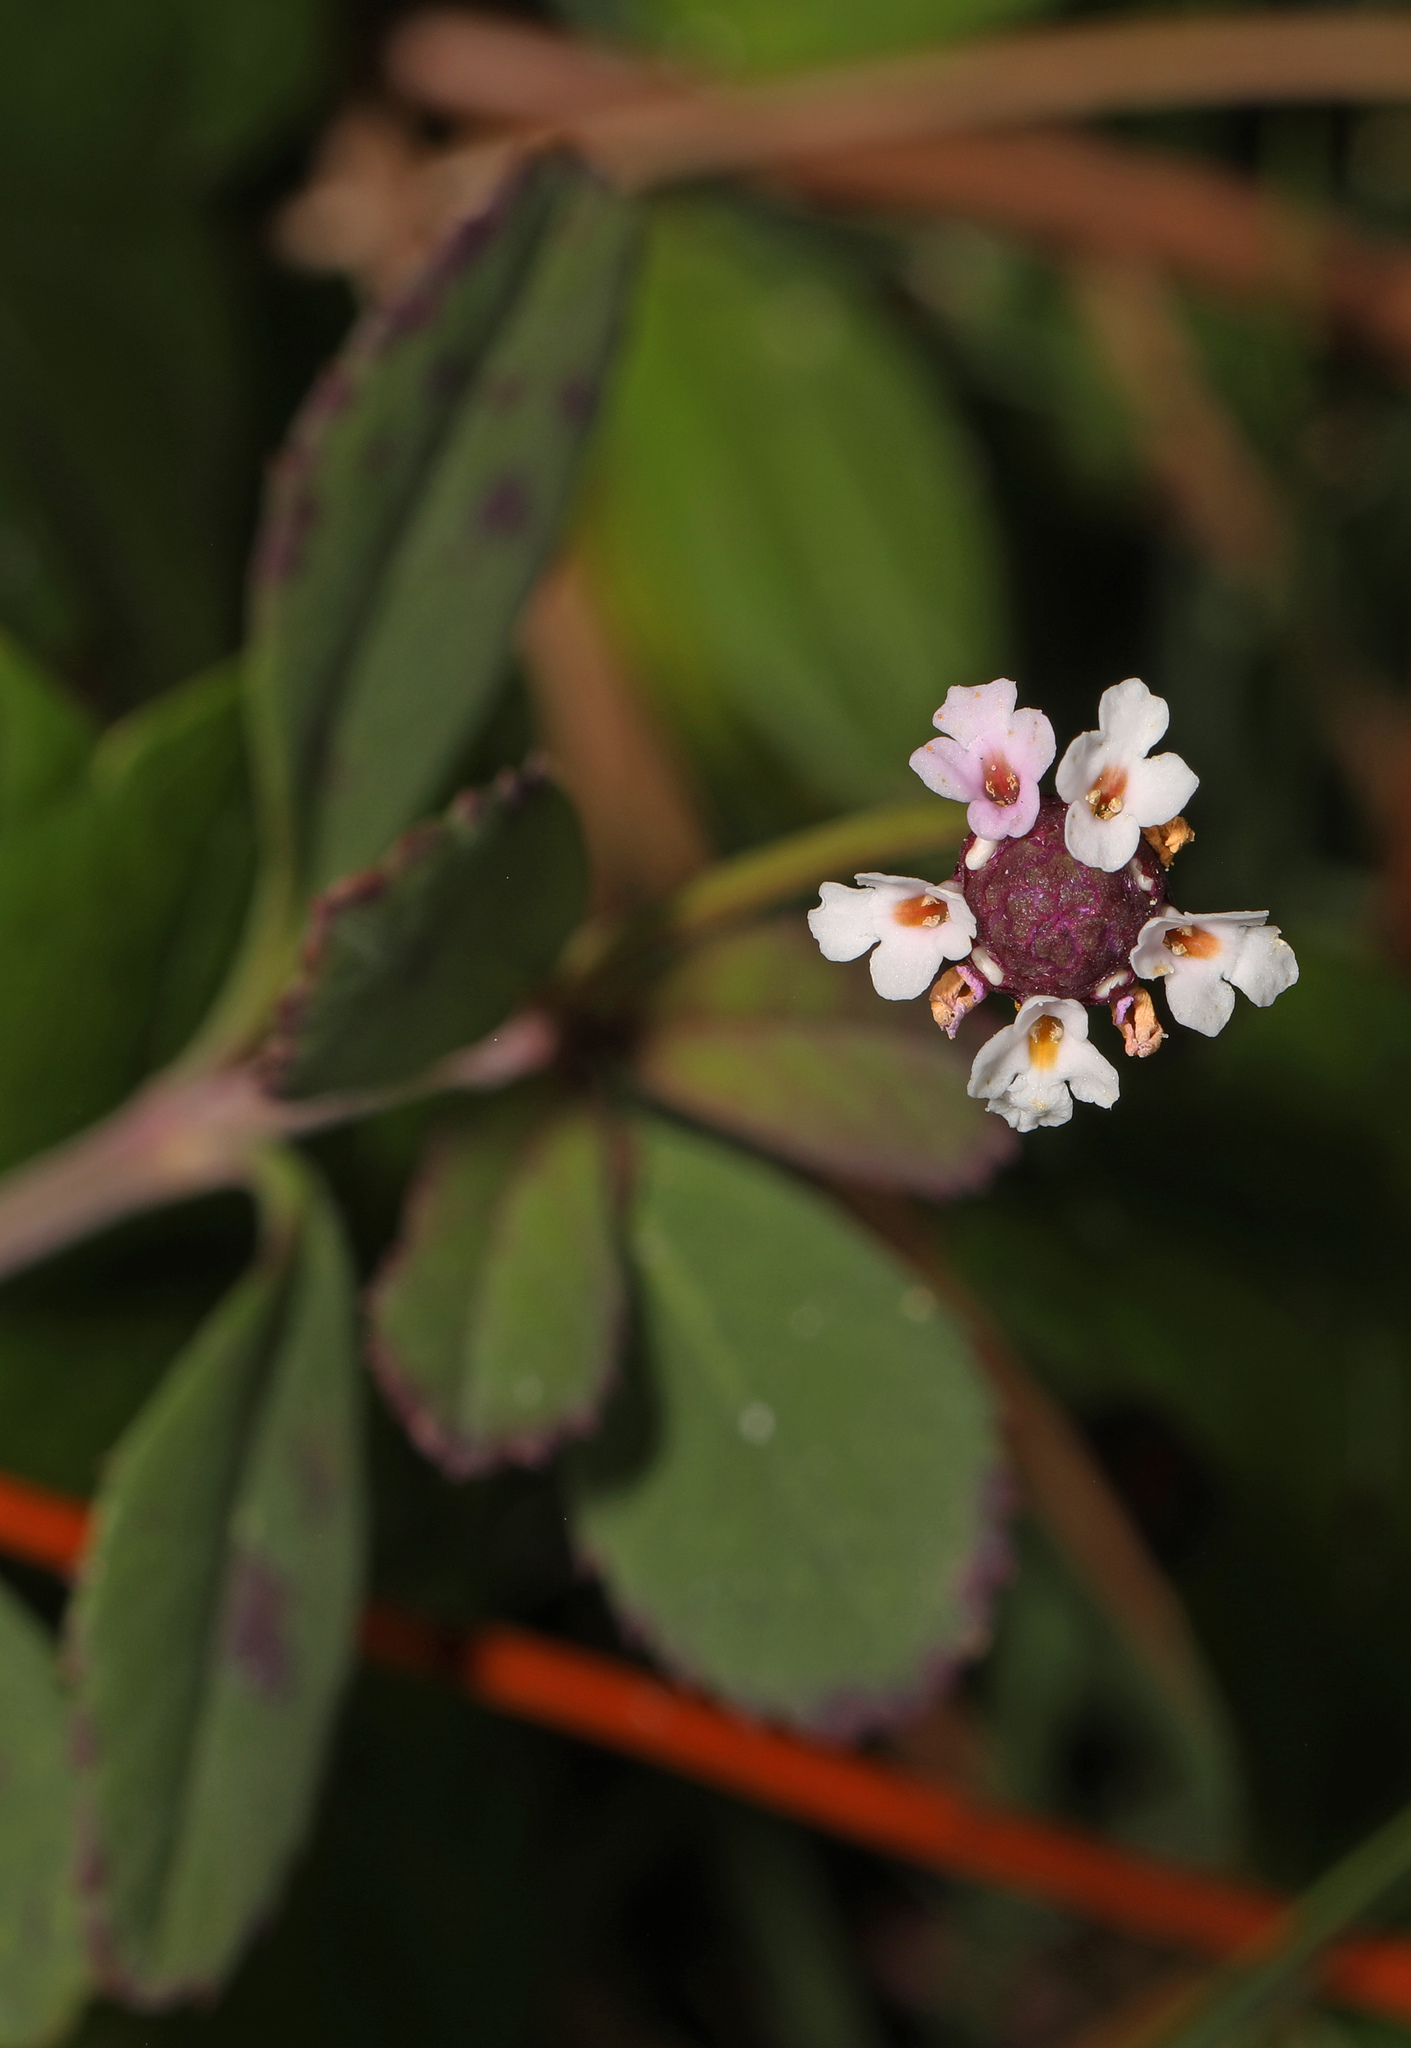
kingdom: Plantae
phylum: Tracheophyta
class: Magnoliopsida
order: Lamiales
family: Verbenaceae
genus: Phyla
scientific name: Phyla nodiflora
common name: Frogfruit
